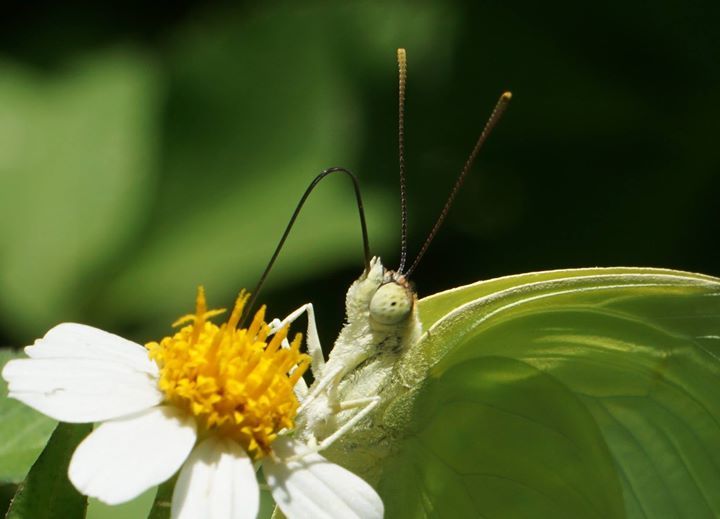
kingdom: Animalia
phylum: Arthropoda
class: Insecta
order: Lepidoptera
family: Pieridae
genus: Aphrissa
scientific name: Aphrissa statira
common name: Statira sulphur
